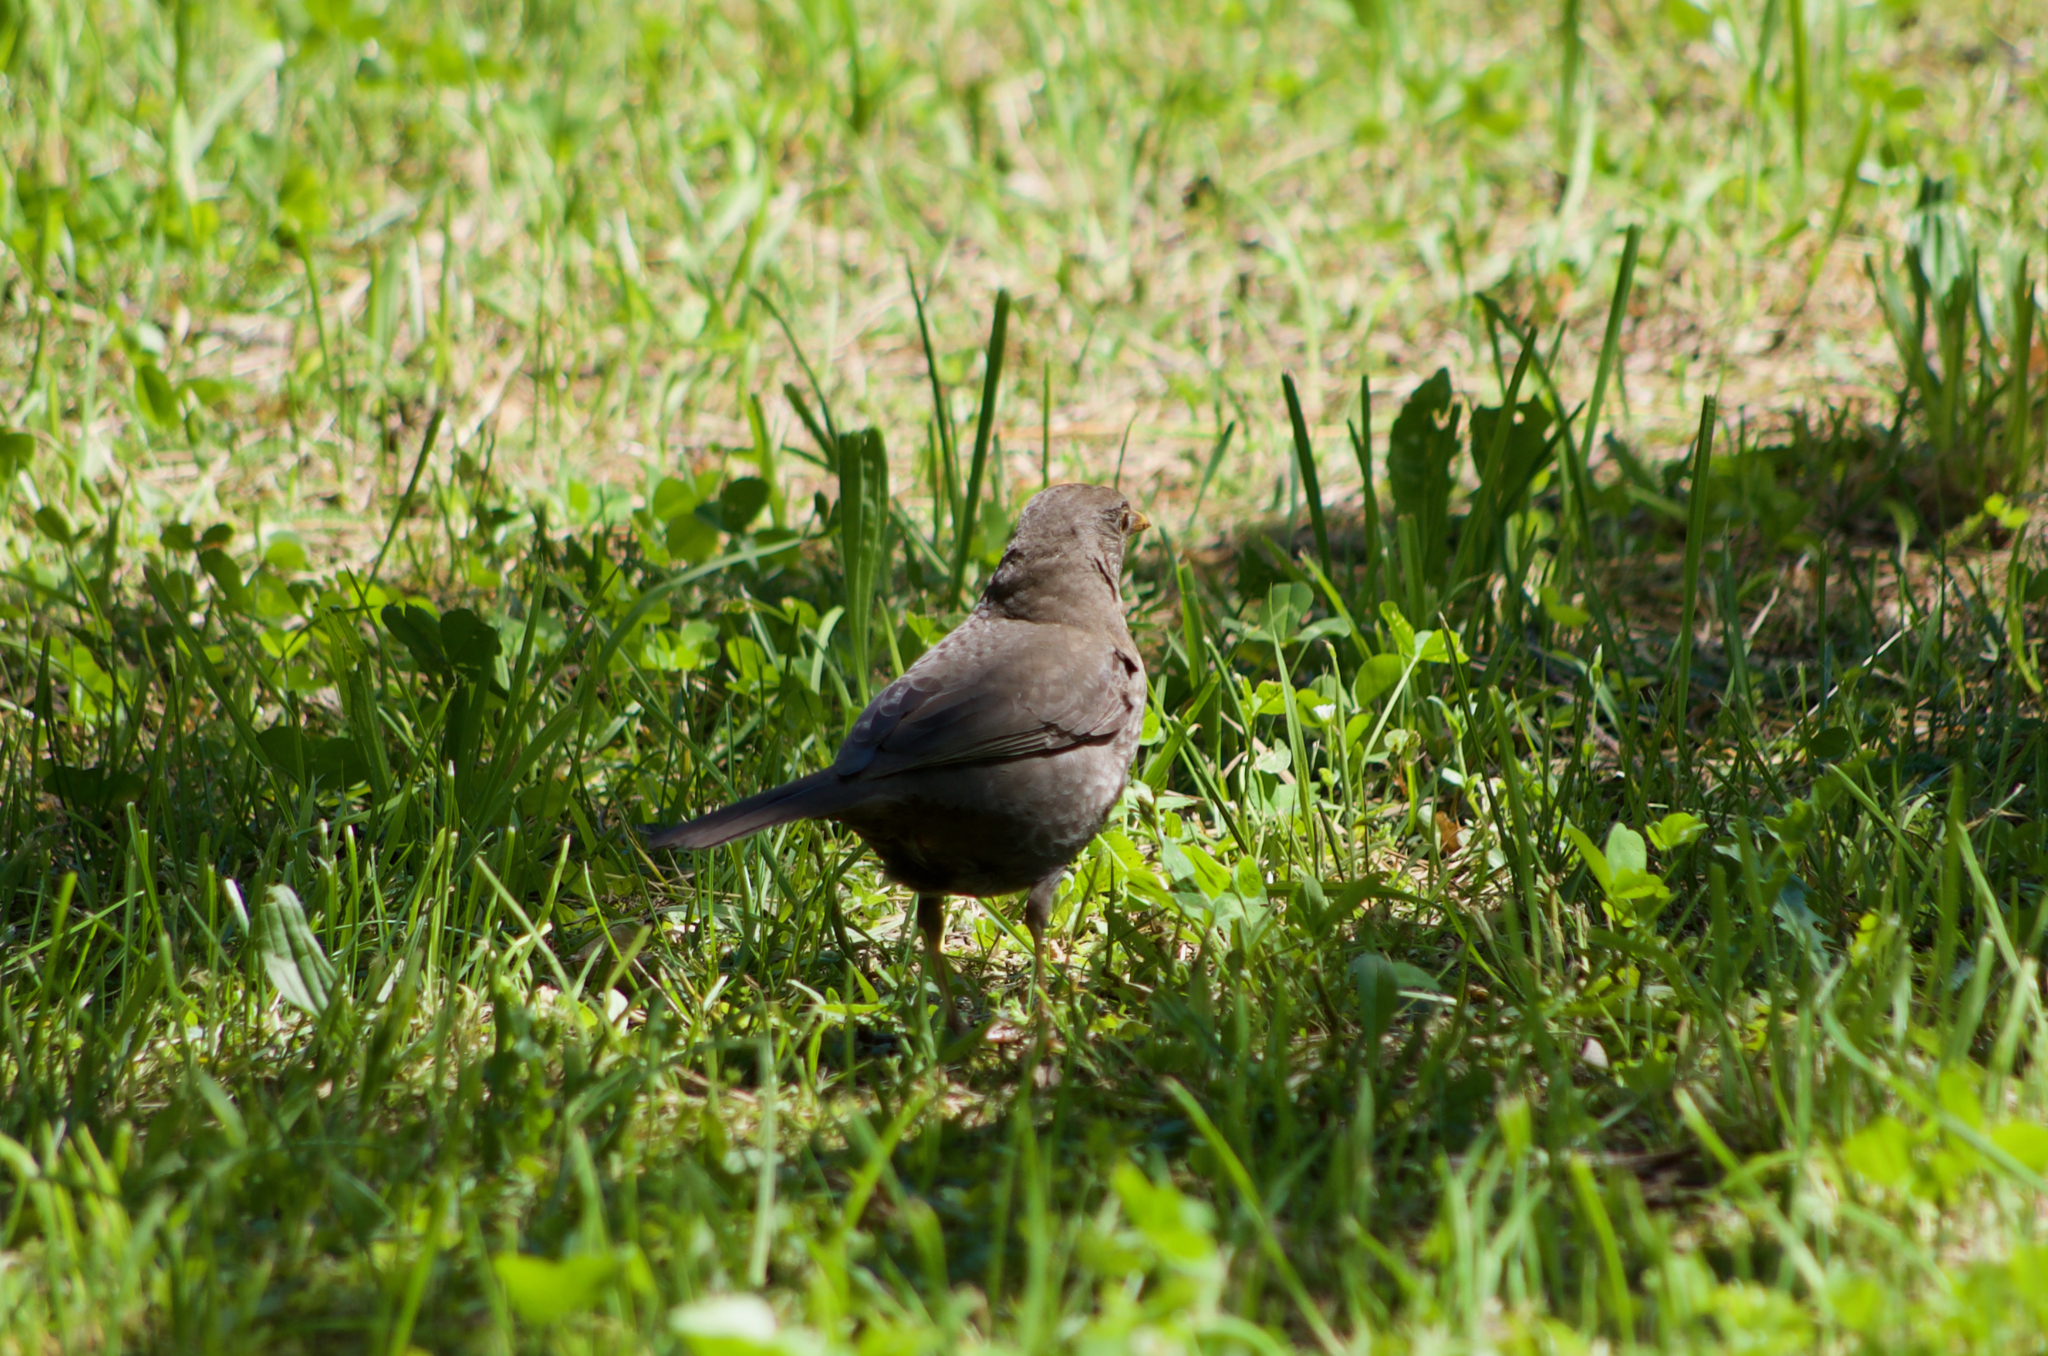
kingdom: Animalia
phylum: Chordata
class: Aves
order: Passeriformes
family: Turdidae
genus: Turdus
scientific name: Turdus merula
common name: Common blackbird
